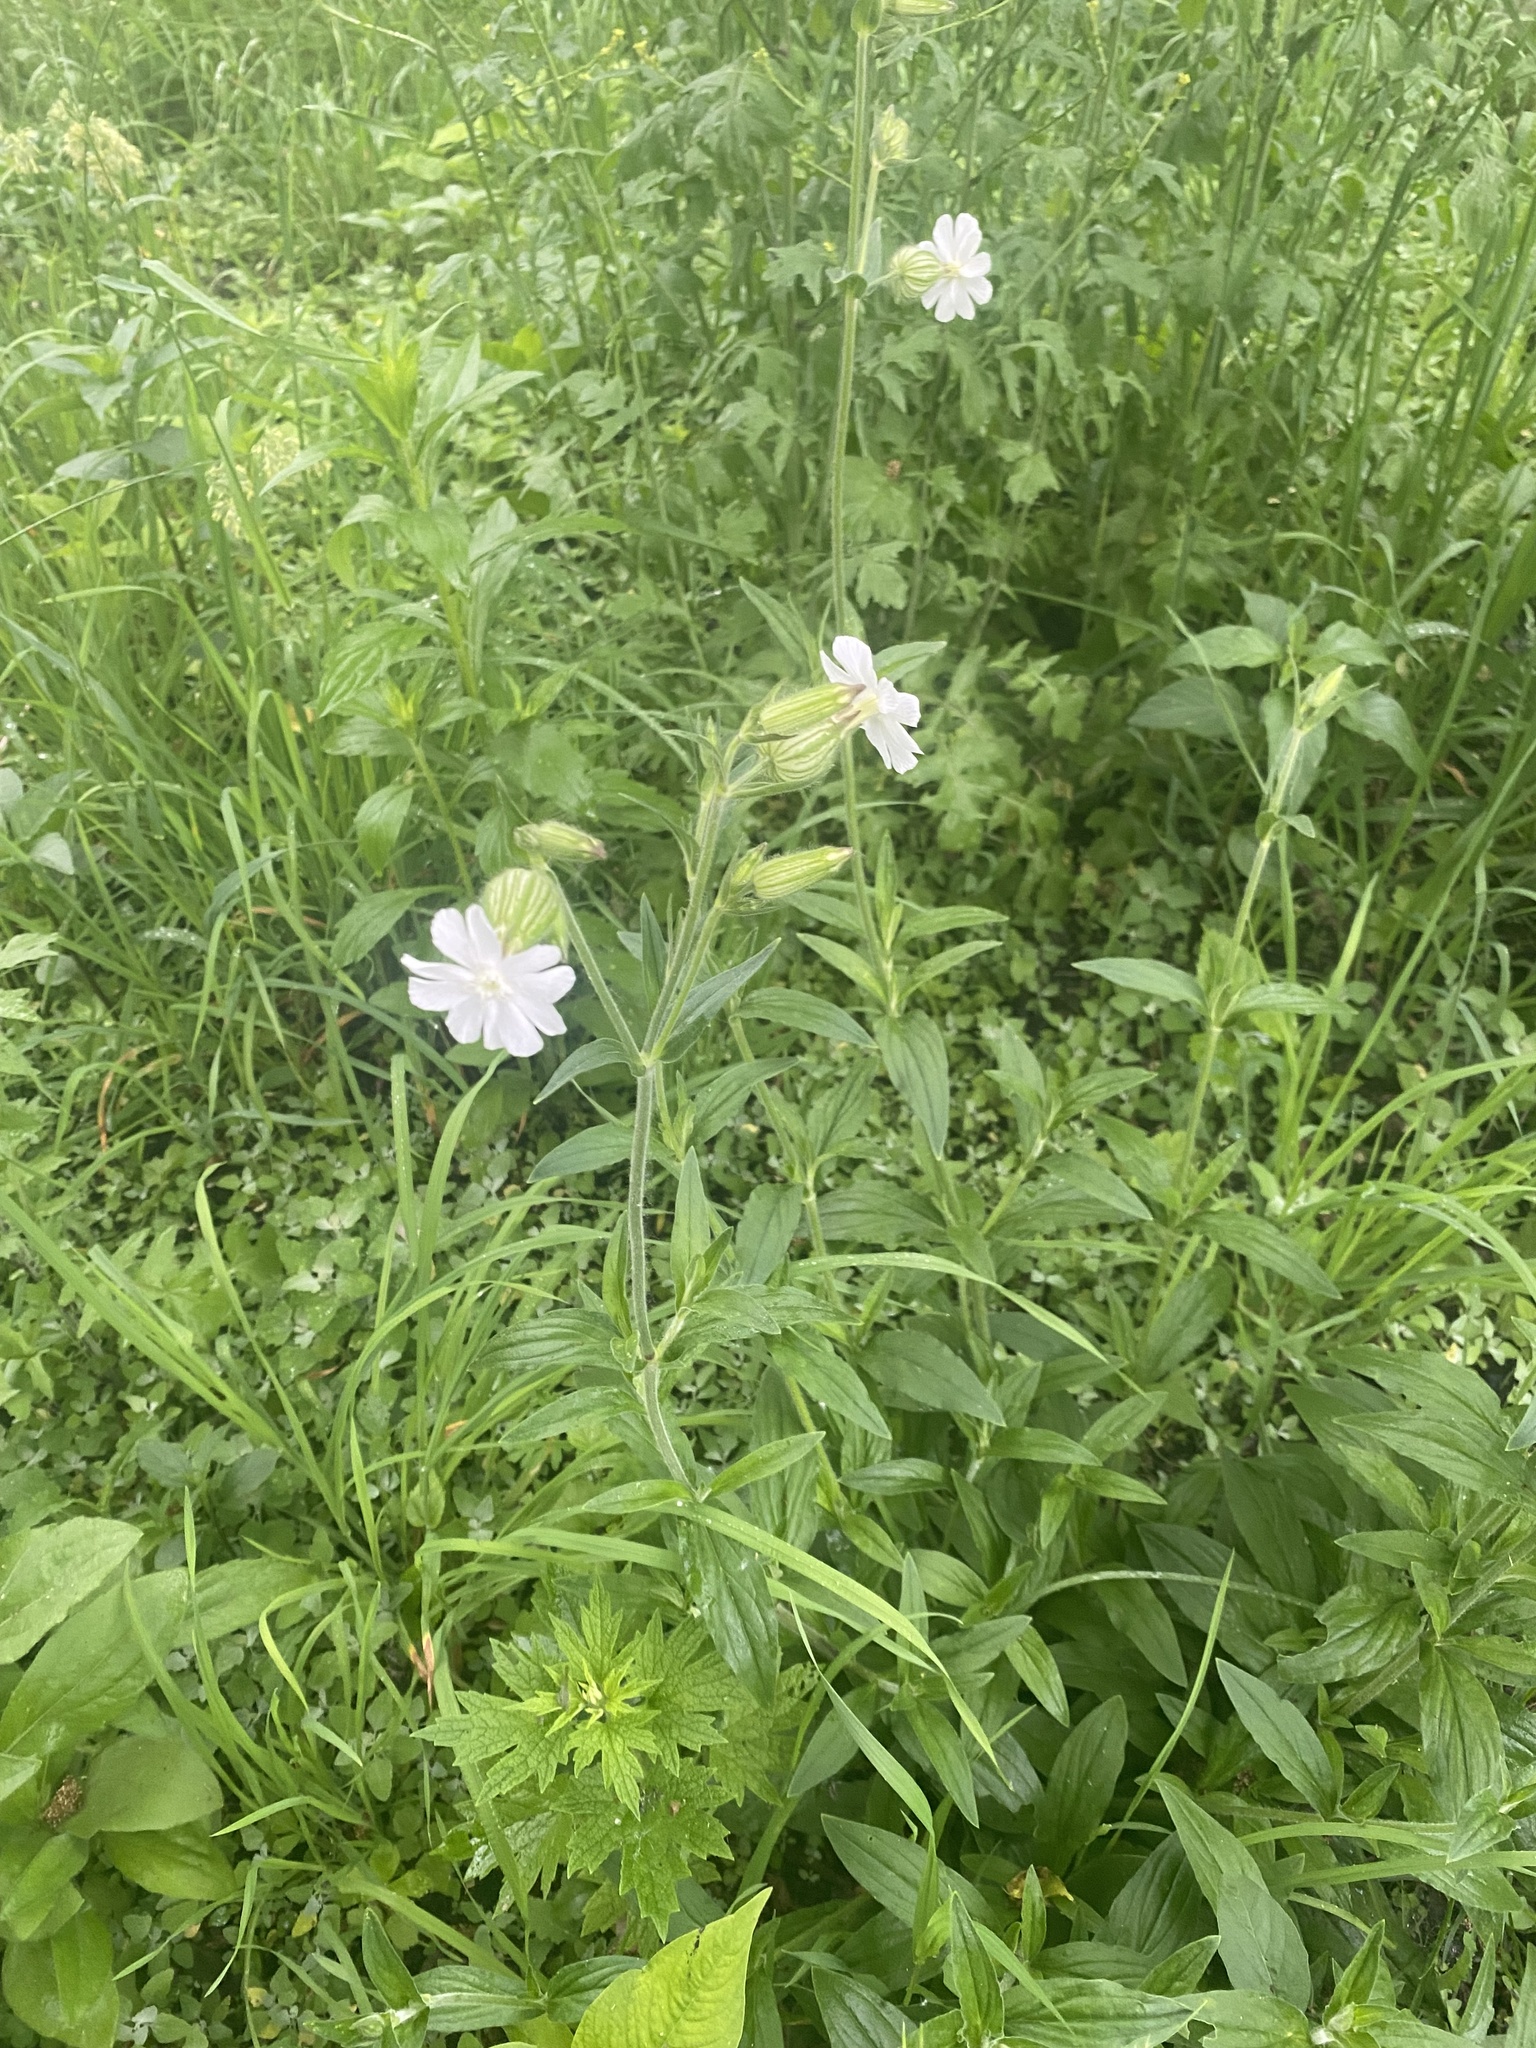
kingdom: Plantae
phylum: Tracheophyta
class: Magnoliopsida
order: Caryophyllales
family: Caryophyllaceae
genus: Silene
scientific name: Silene latifolia
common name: White campion
